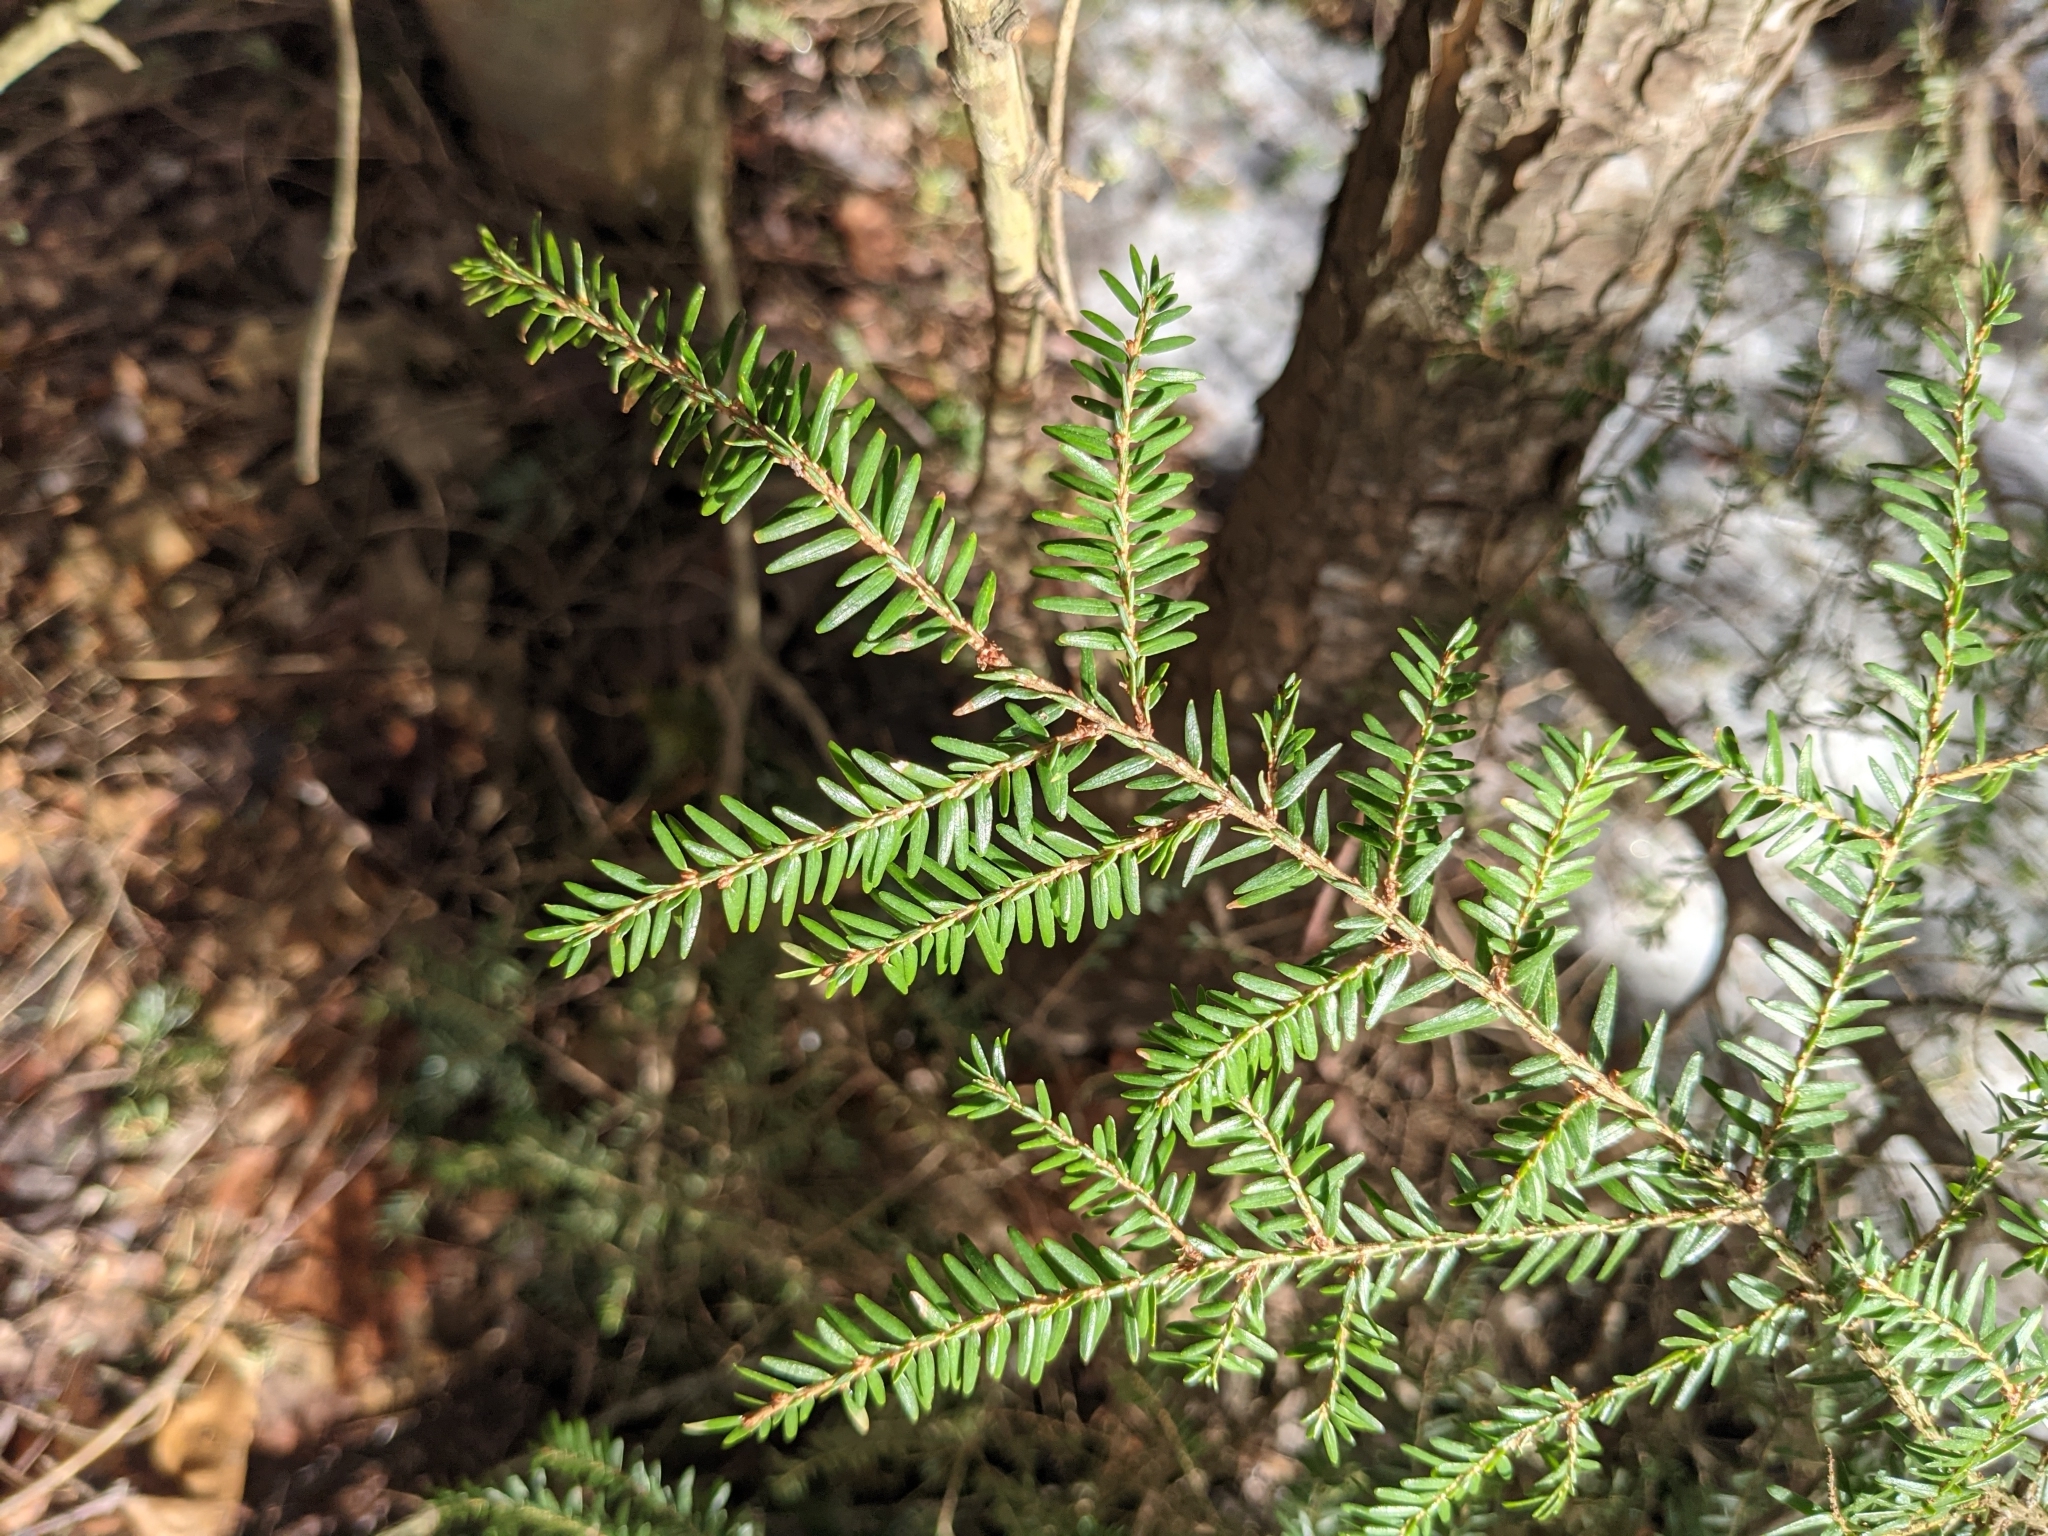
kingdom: Plantae
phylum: Tracheophyta
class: Pinopsida
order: Pinales
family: Pinaceae
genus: Tsuga
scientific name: Tsuga canadensis
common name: Eastern hemlock
